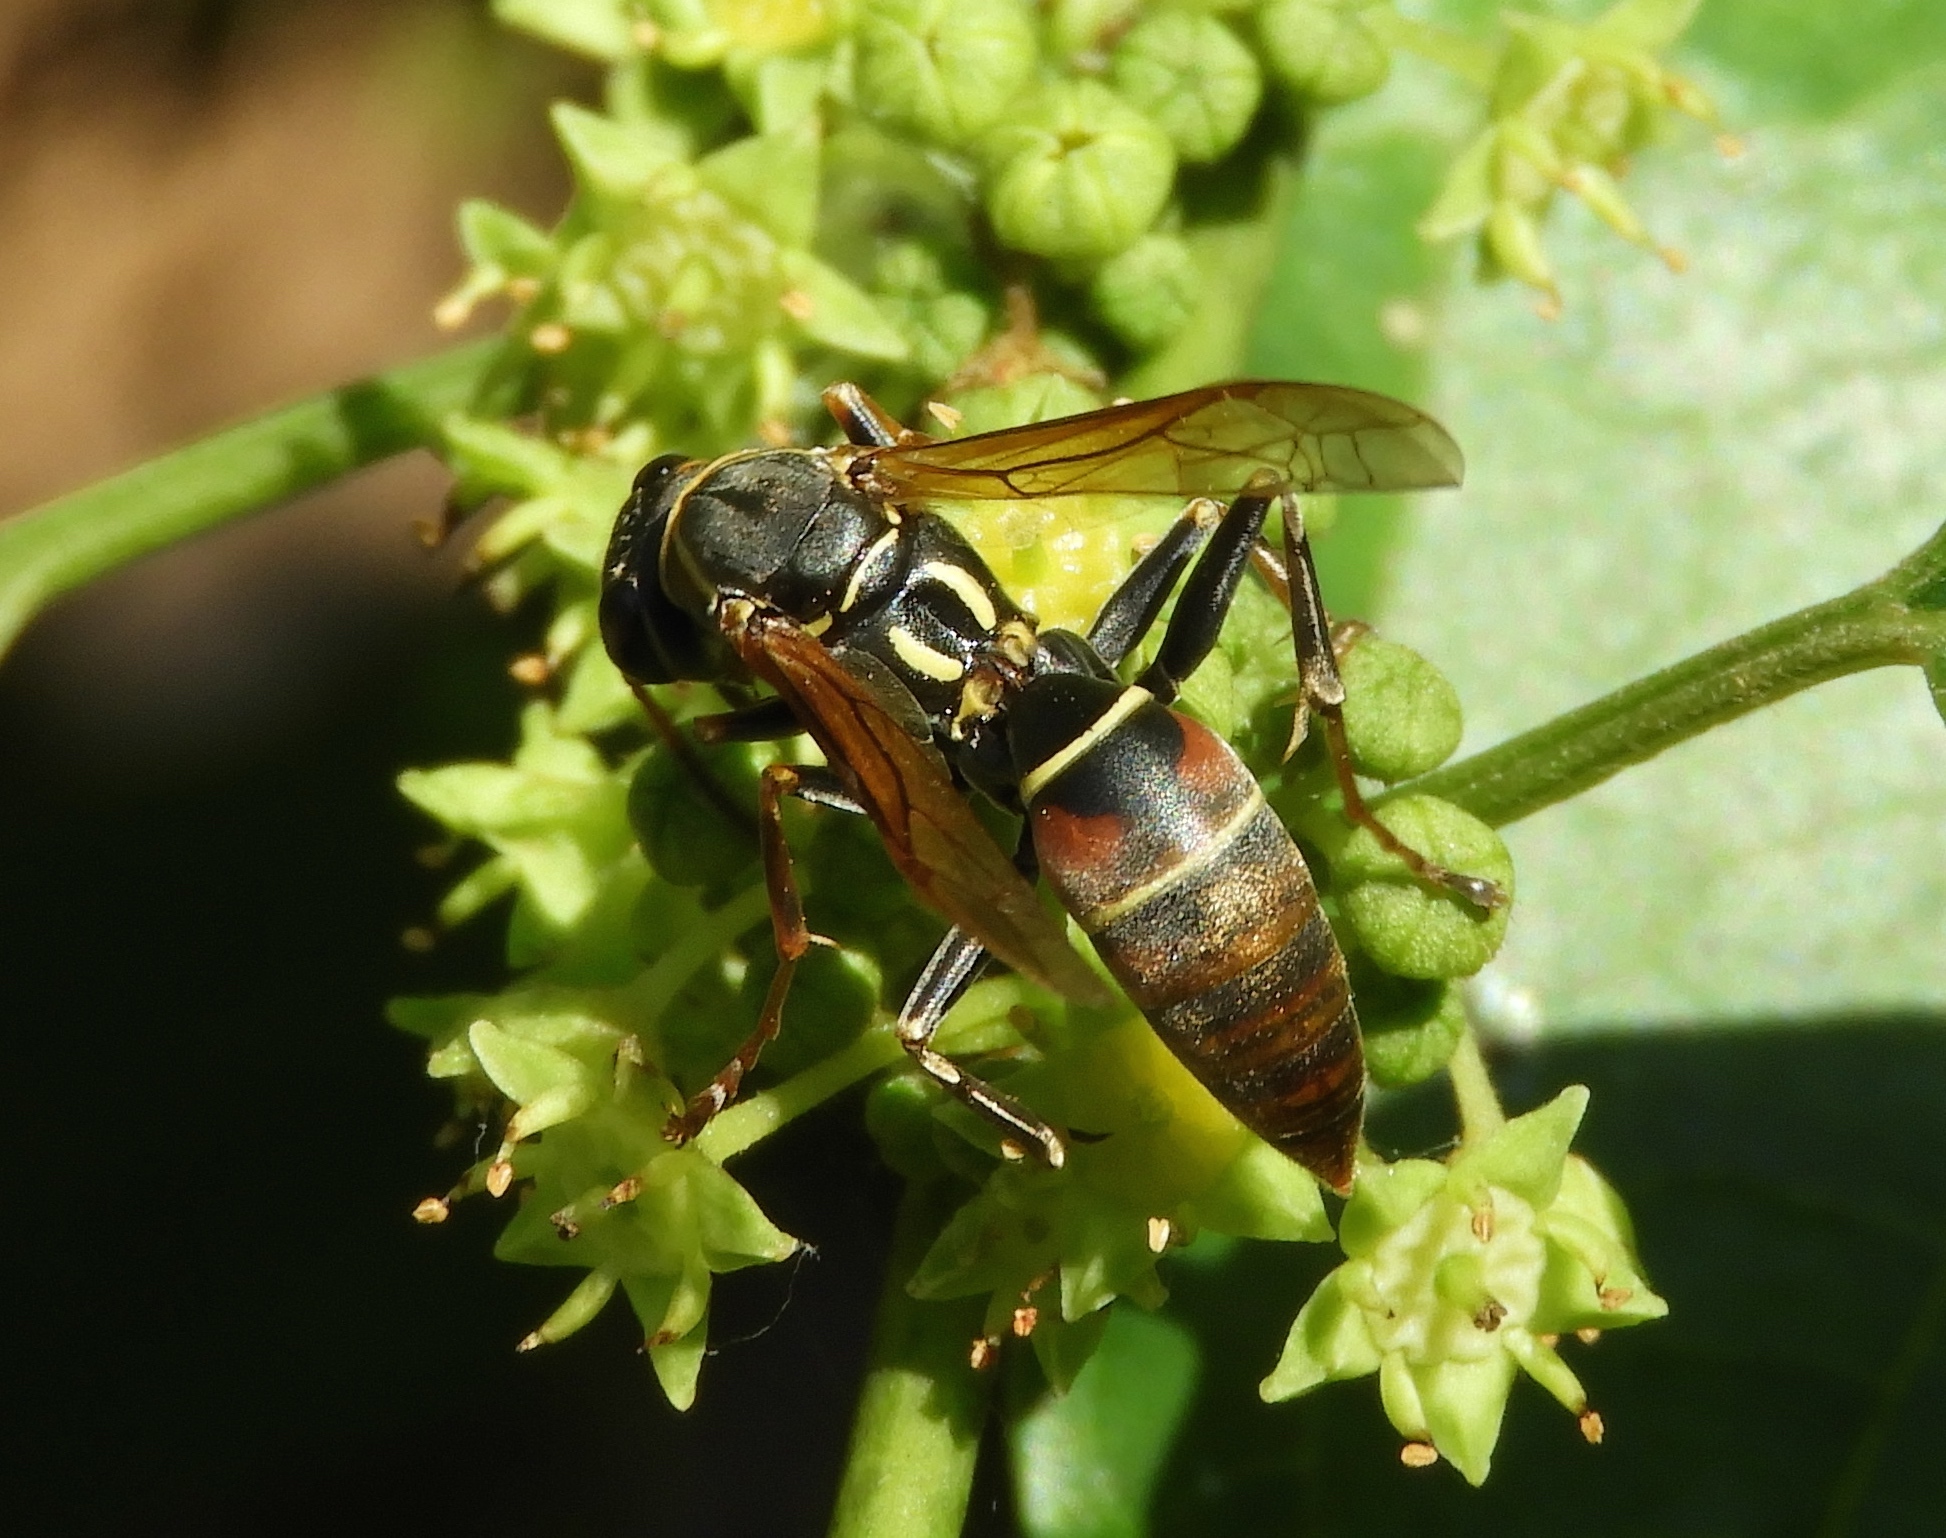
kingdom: Animalia
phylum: Arthropoda
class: Insecta
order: Hymenoptera
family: Eumenidae
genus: Polistes
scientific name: Polistes pacificus
